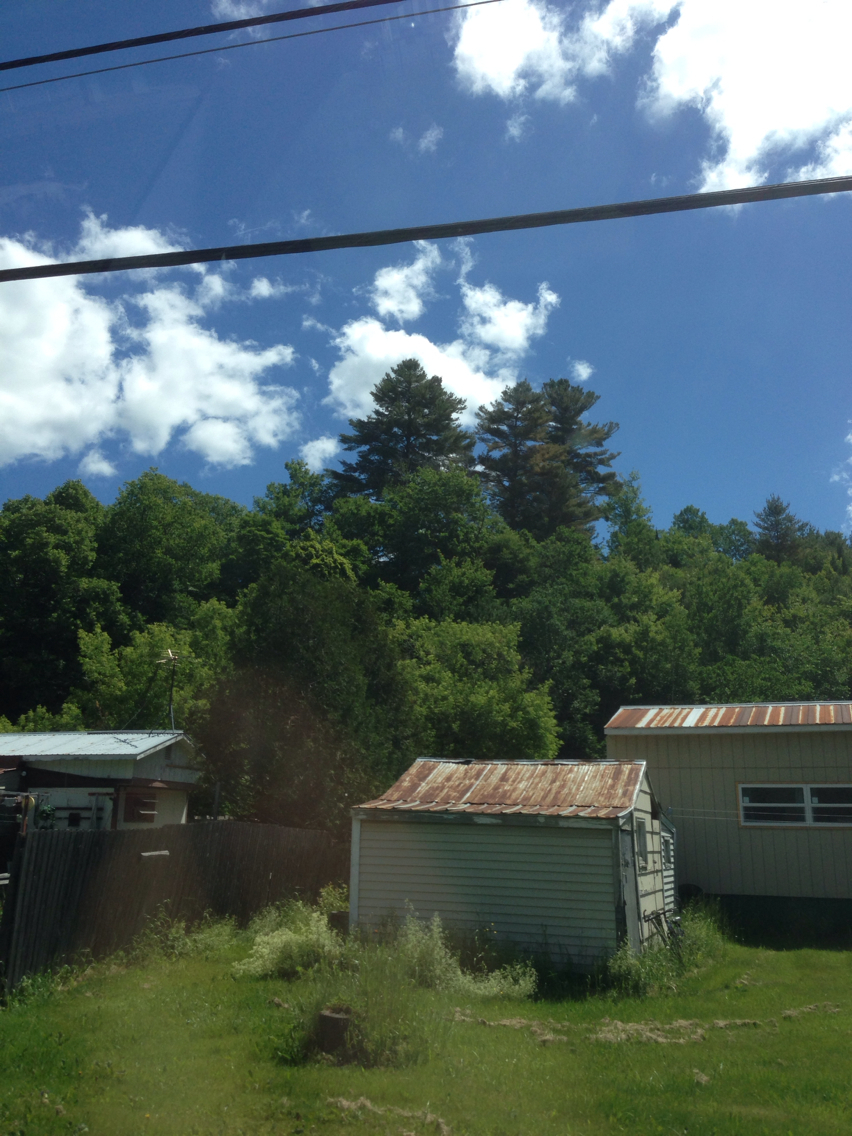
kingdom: Plantae
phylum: Tracheophyta
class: Pinopsida
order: Pinales
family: Pinaceae
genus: Pinus
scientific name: Pinus strobus
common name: Weymouth pine
